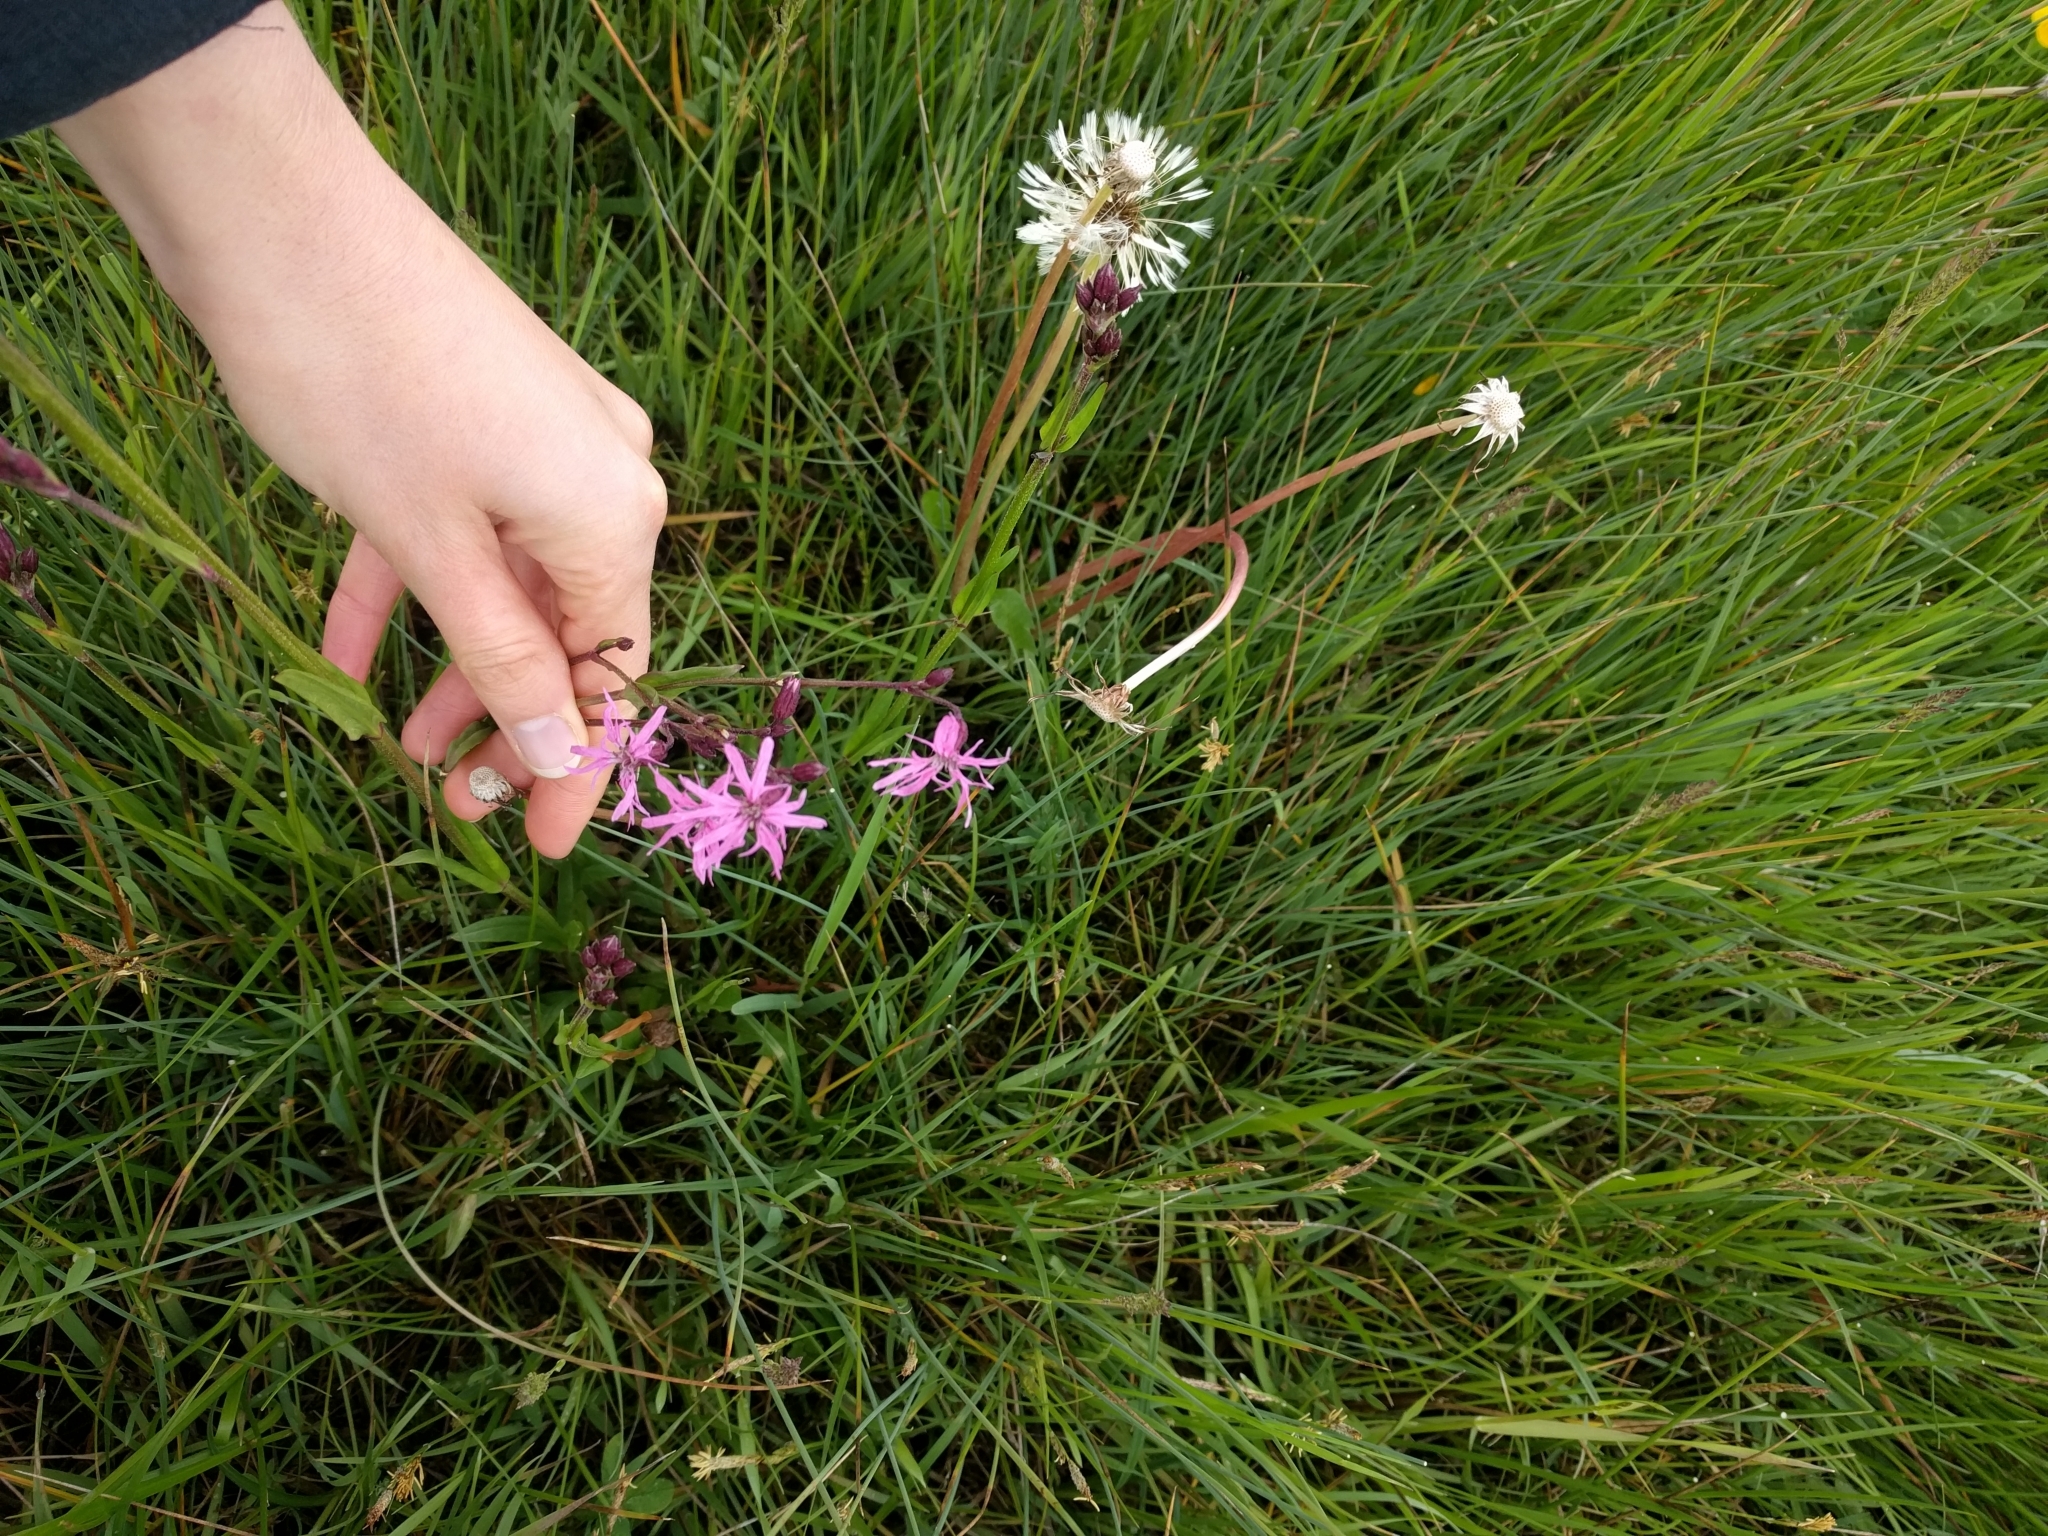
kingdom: Plantae
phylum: Tracheophyta
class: Magnoliopsida
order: Caryophyllales
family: Caryophyllaceae
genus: Silene
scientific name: Silene flos-cuculi
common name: Ragged-robin
